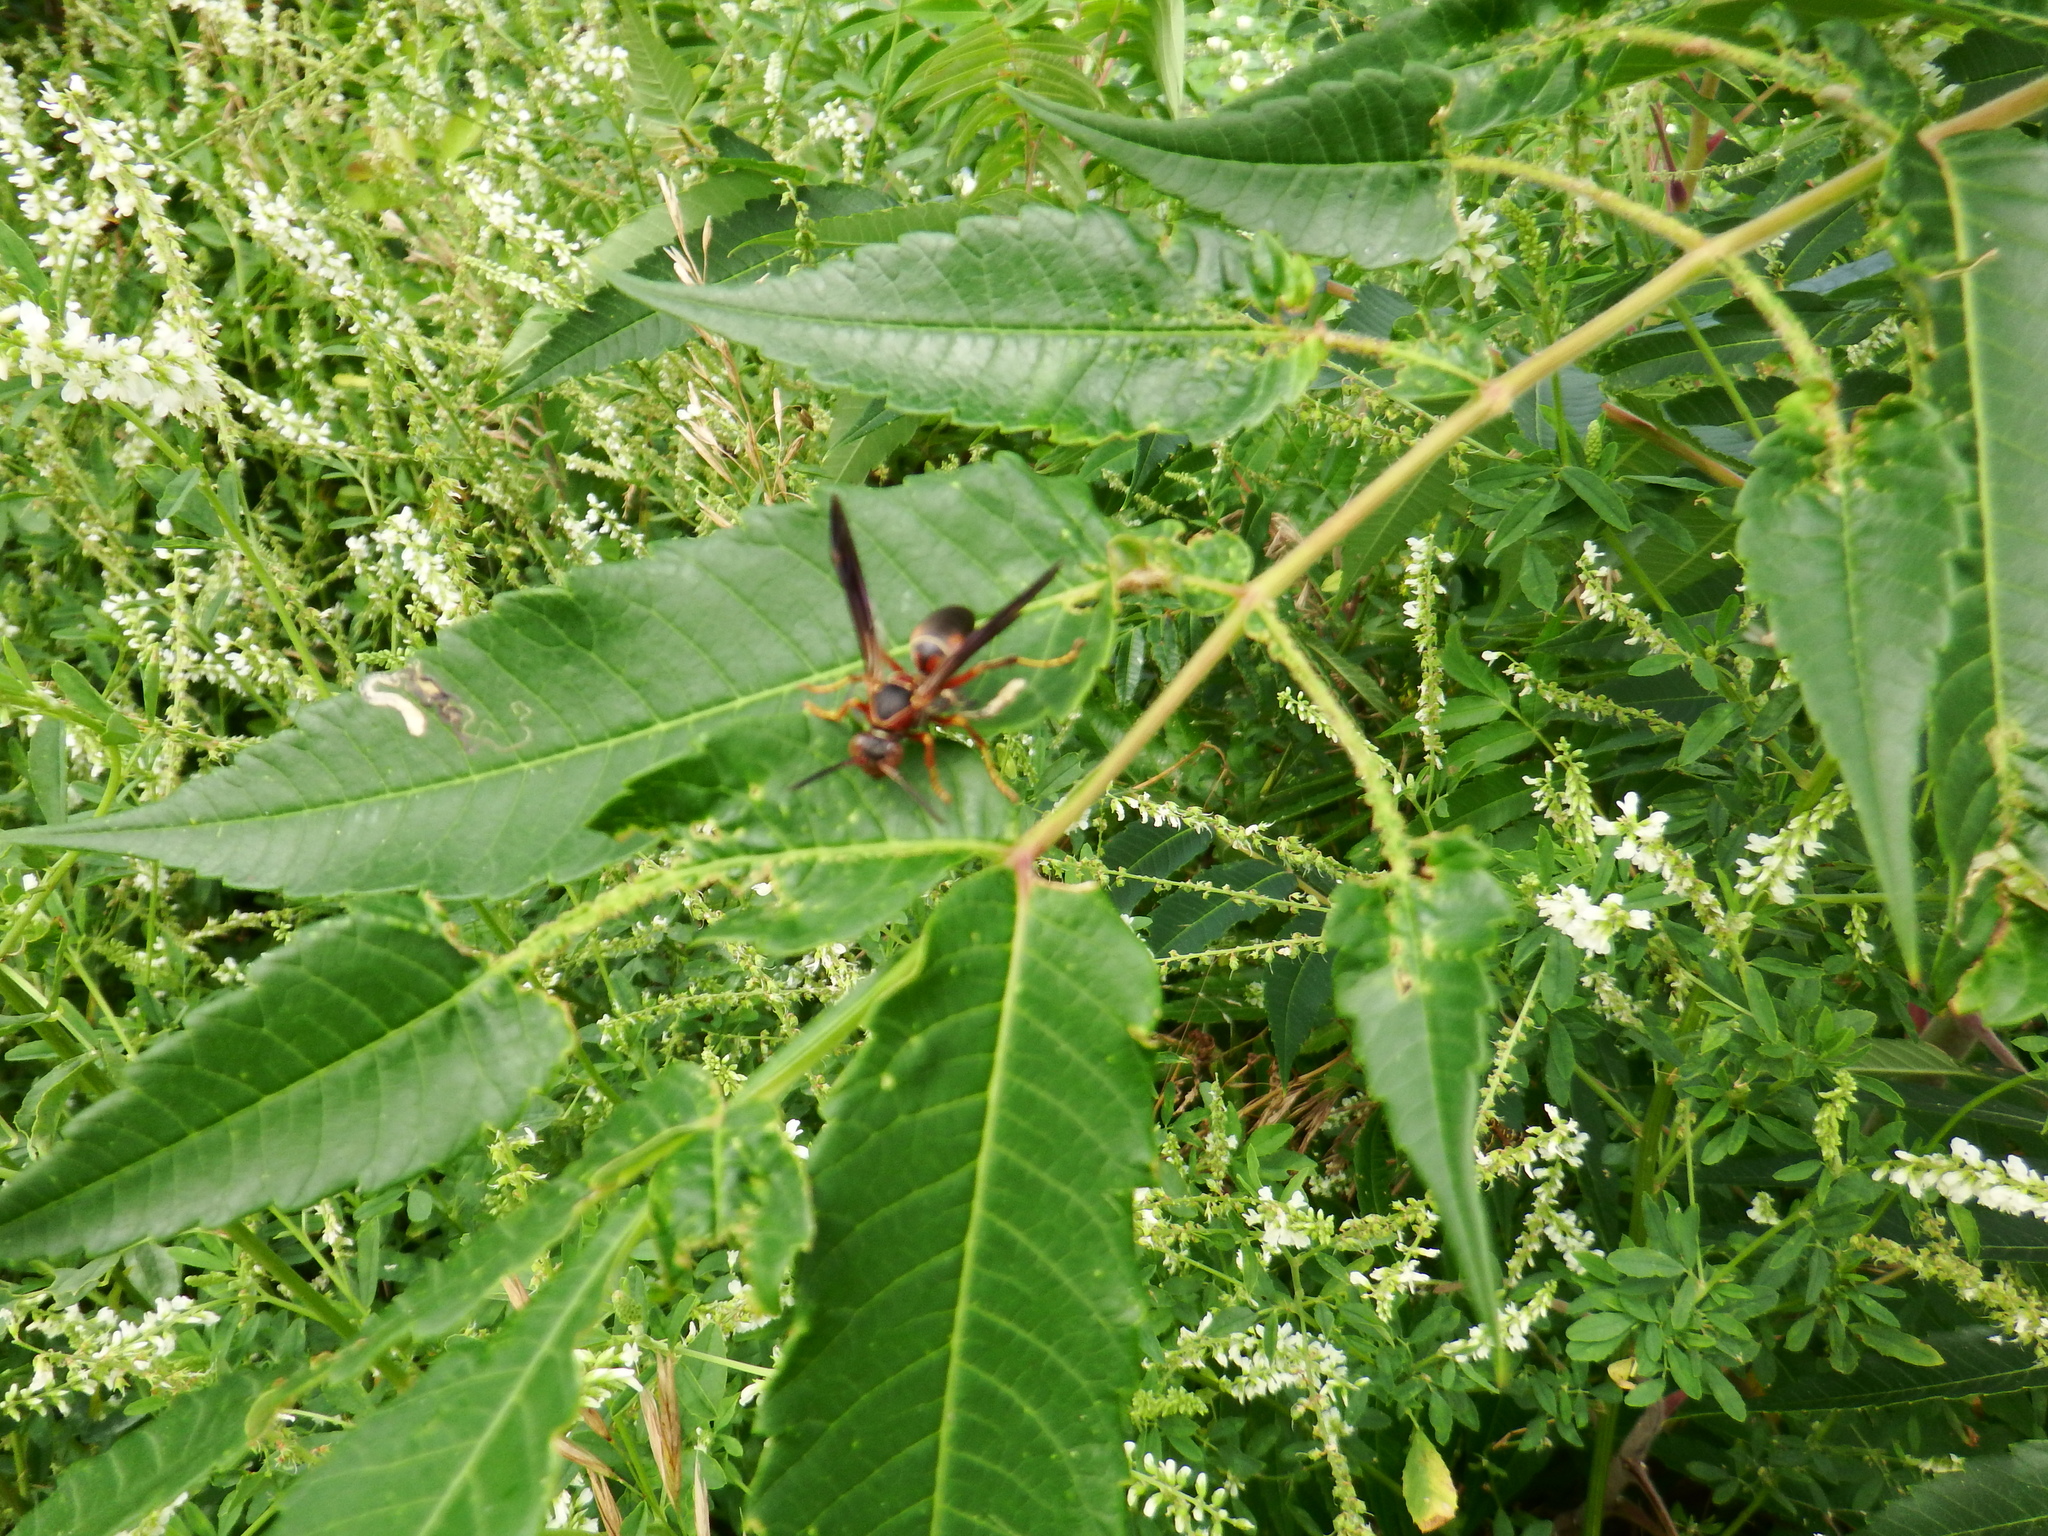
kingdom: Animalia
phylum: Arthropoda
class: Insecta
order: Hymenoptera
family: Eumenidae
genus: Polistes
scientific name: Polistes fuscatus
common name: Dark paper wasp
